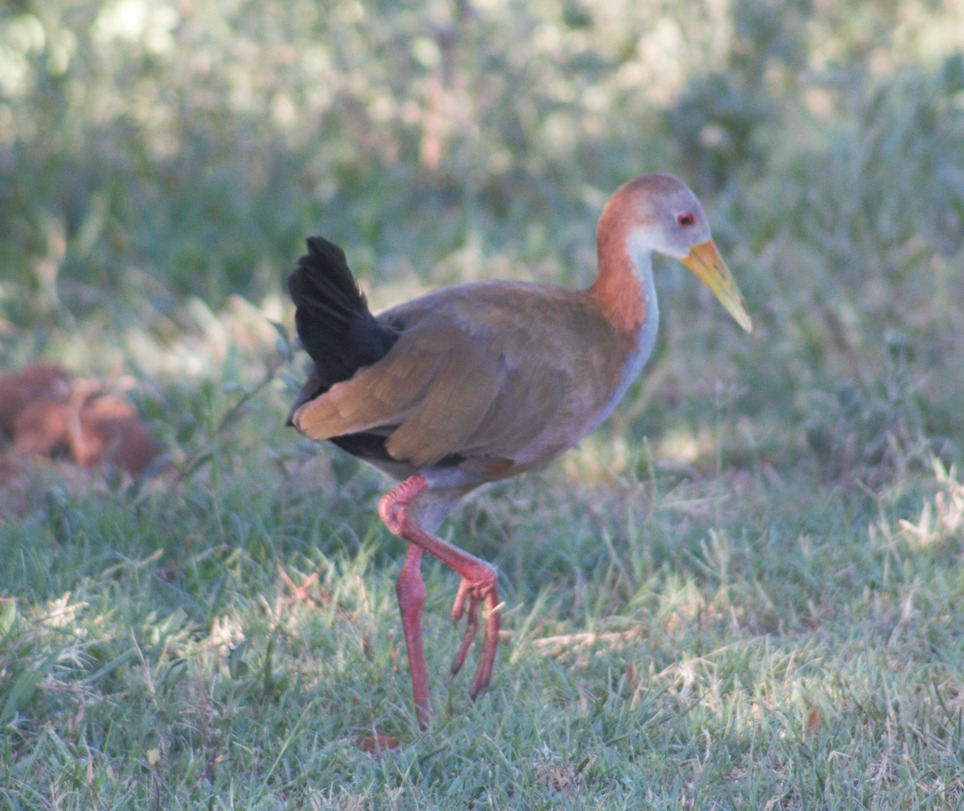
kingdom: Animalia
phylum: Chordata
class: Aves
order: Gruiformes
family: Rallidae
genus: Aramides
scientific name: Aramides ypecaha
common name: Giant wood rail
